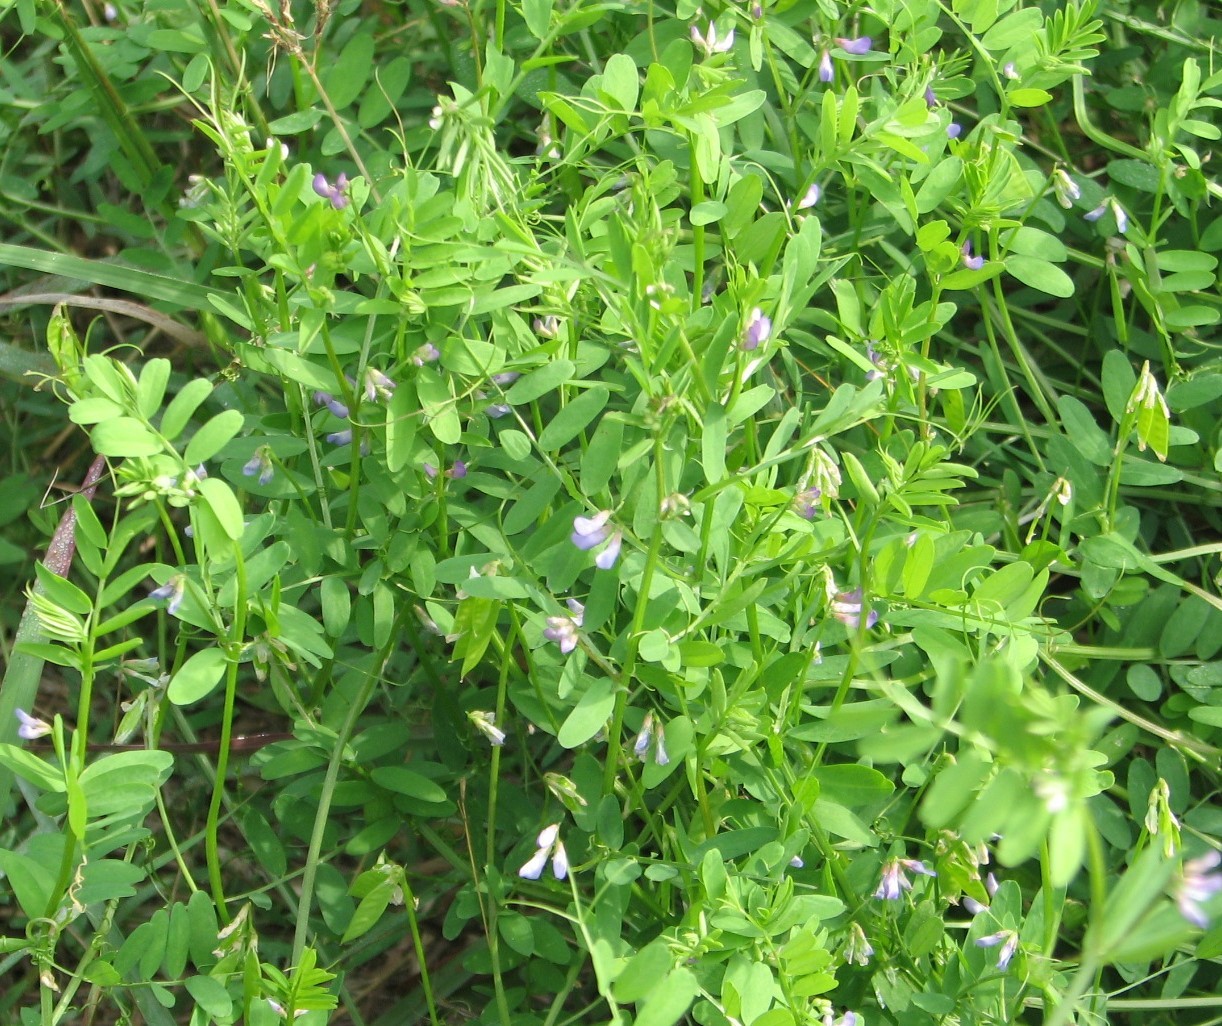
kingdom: Plantae
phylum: Tracheophyta
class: Magnoliopsida
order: Fabales
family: Fabaceae
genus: Vicia
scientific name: Vicia ludoviciana
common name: Louisiana vetch
